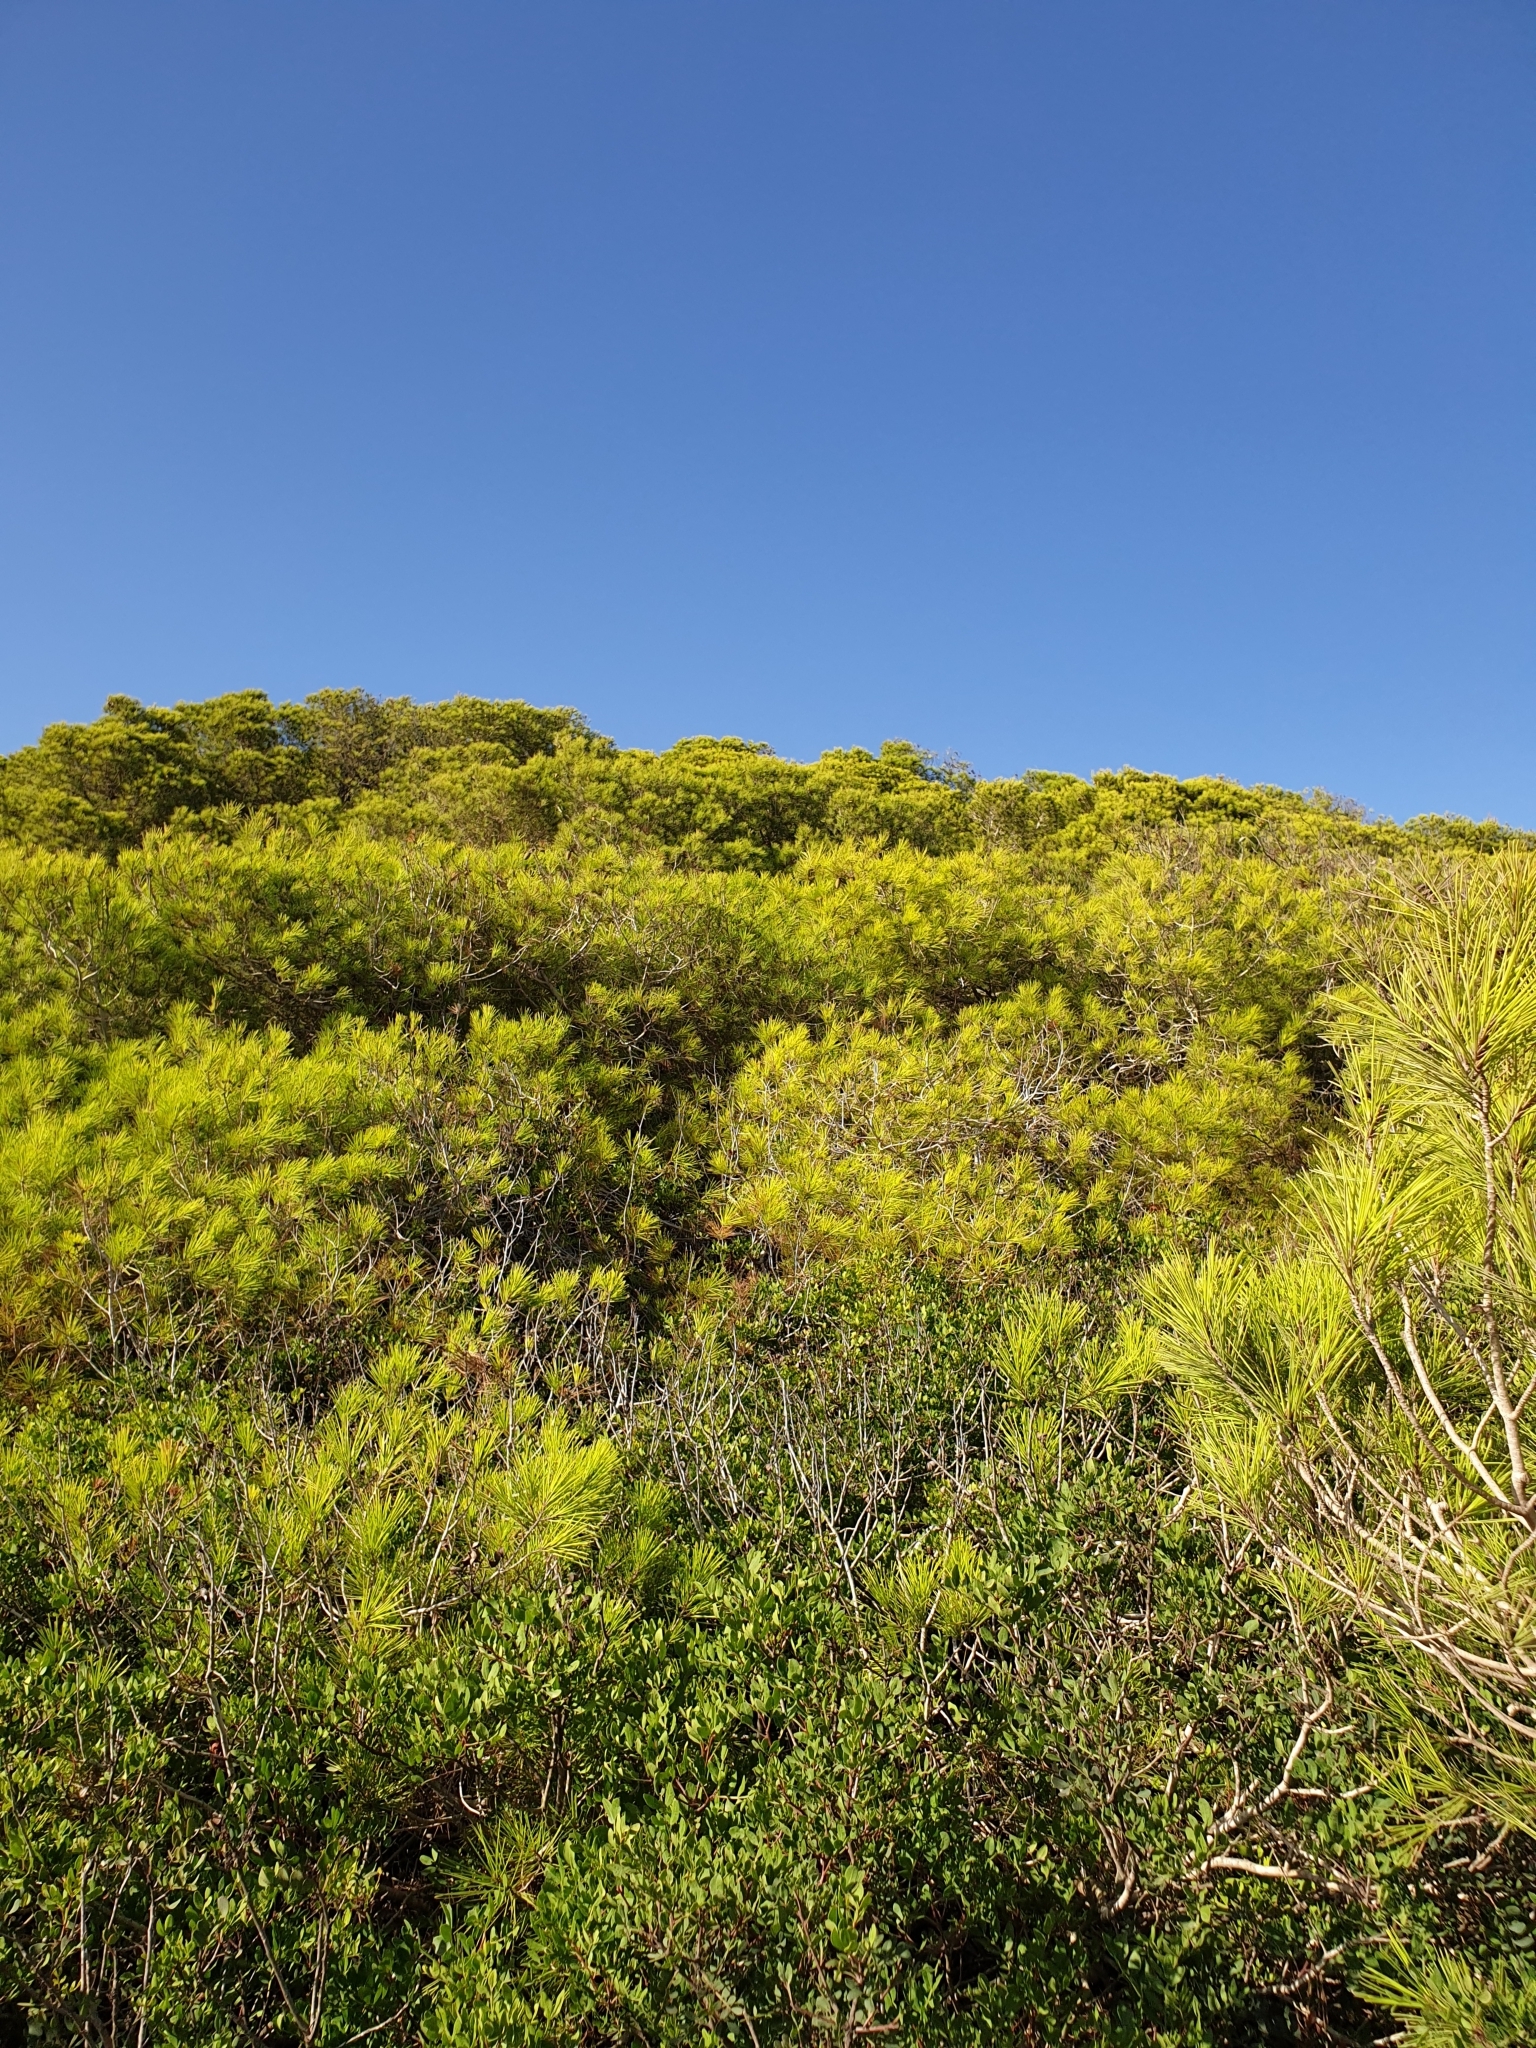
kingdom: Plantae
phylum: Tracheophyta
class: Pinopsida
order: Pinales
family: Pinaceae
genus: Pinus
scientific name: Pinus halepensis
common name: Aleppo pine
